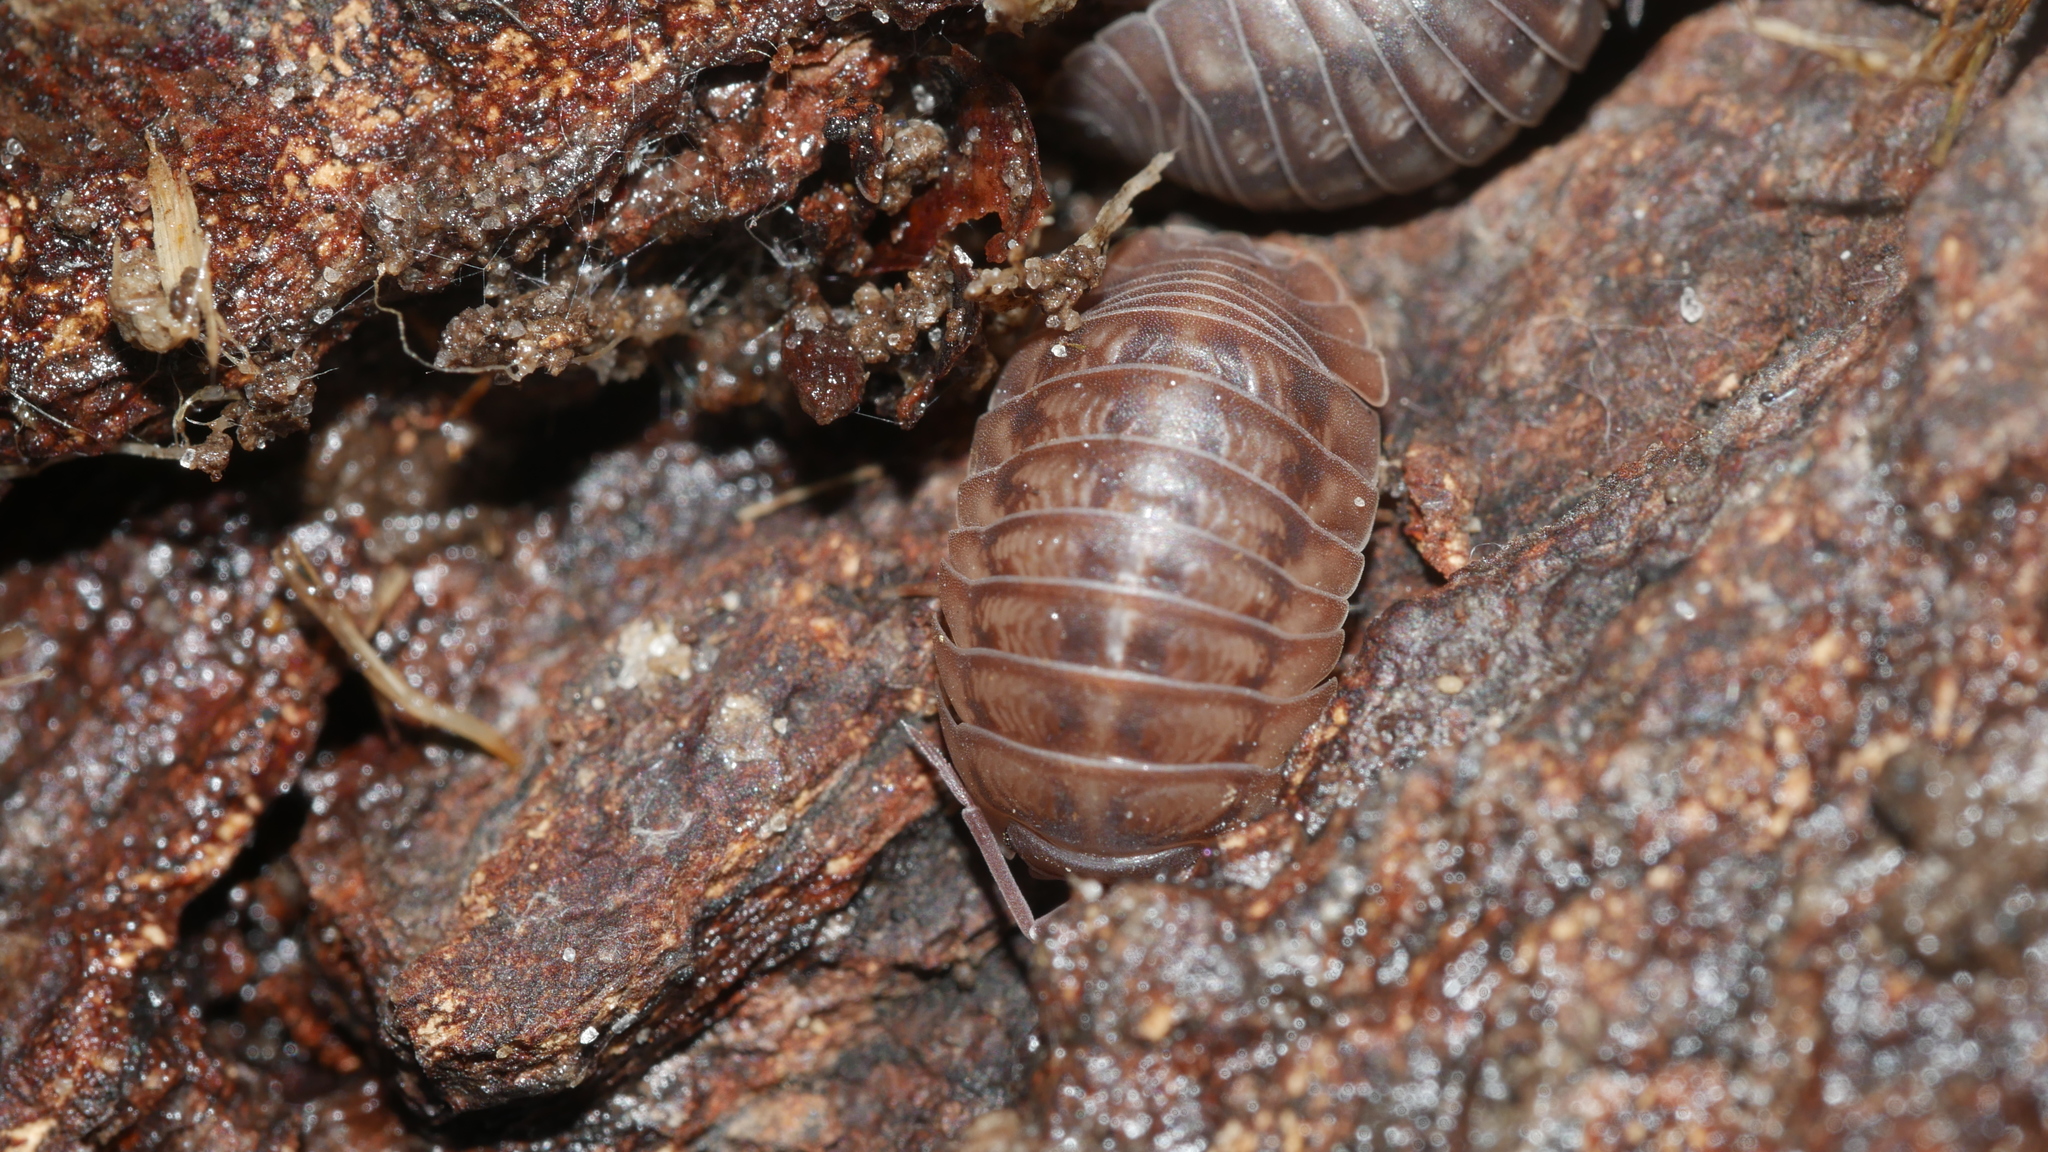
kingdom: Animalia
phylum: Arthropoda
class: Malacostraca
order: Isopoda
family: Armadillidiidae
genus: Armadillidium
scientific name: Armadillidium nasatum
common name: Isopod
